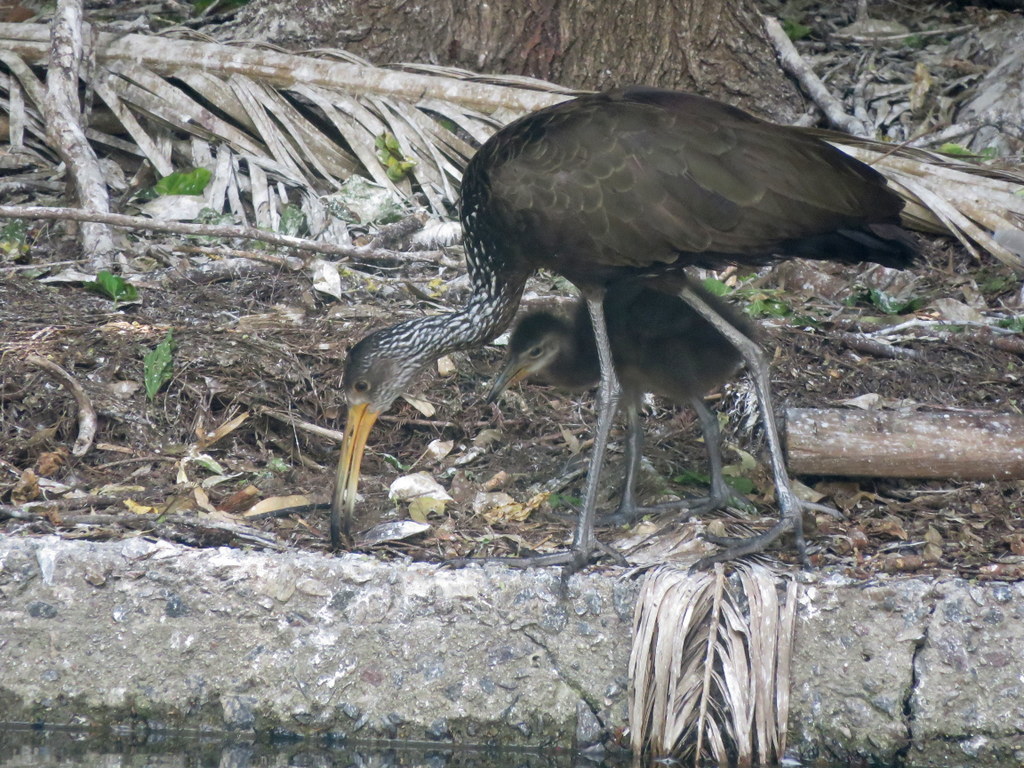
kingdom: Animalia
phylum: Chordata
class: Aves
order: Gruiformes
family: Aramidae
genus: Aramus
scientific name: Aramus guarauna
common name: Limpkin
